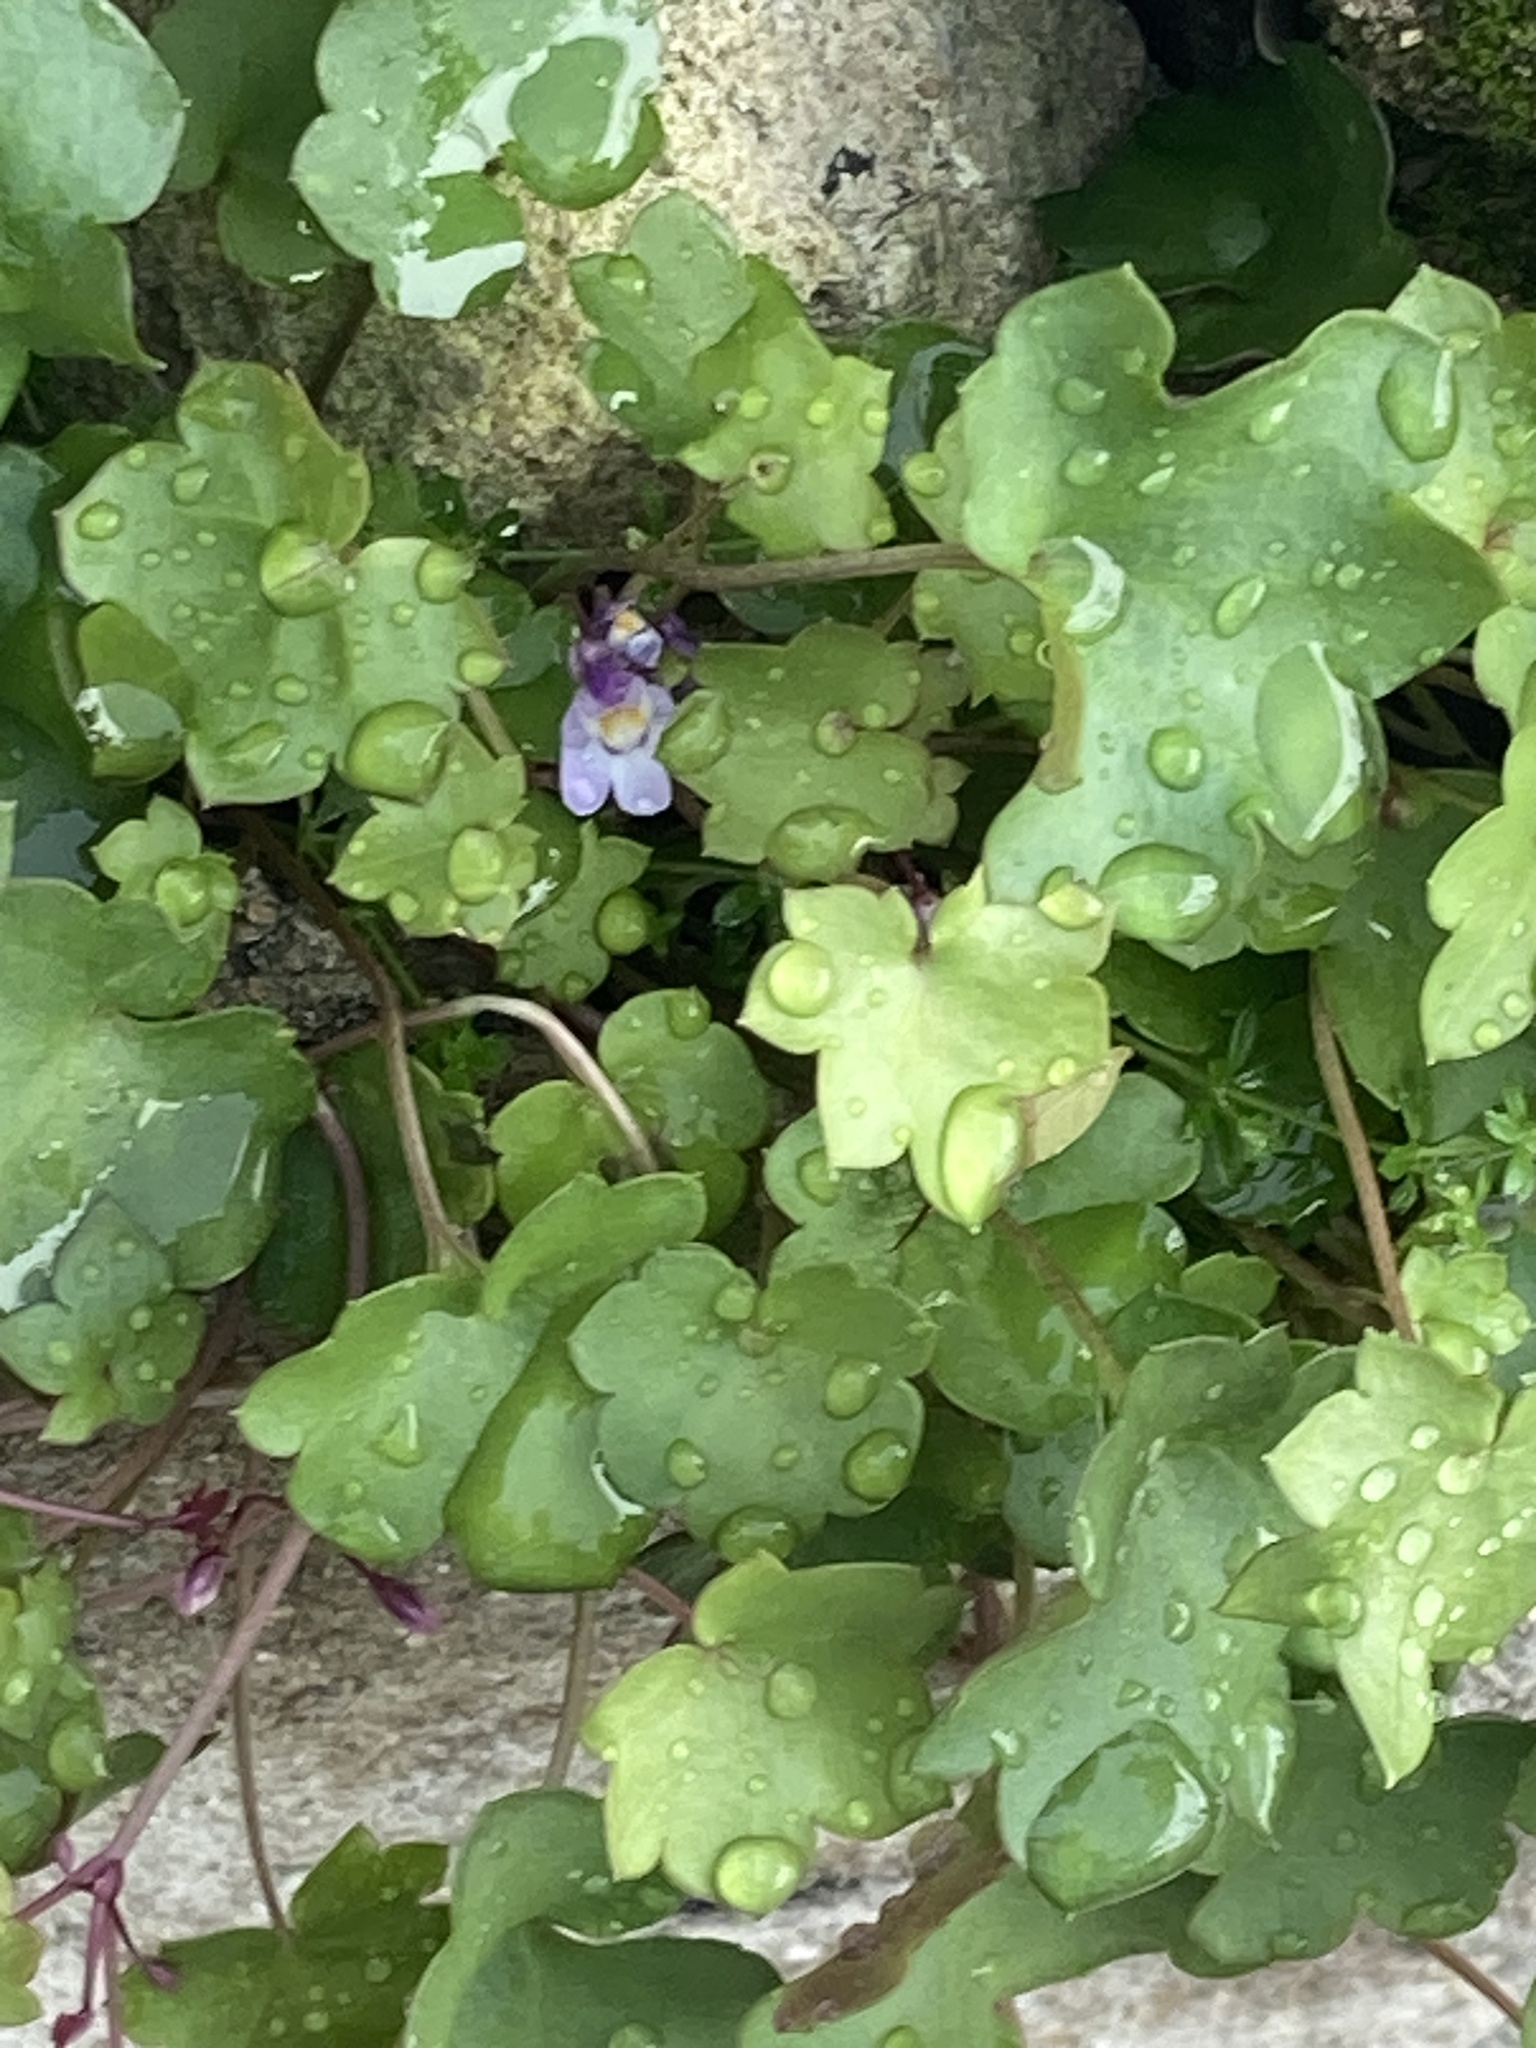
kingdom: Plantae
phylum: Tracheophyta
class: Magnoliopsida
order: Lamiales
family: Plantaginaceae
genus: Cymbalaria
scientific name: Cymbalaria muralis
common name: Ivy-leaved toadflax
